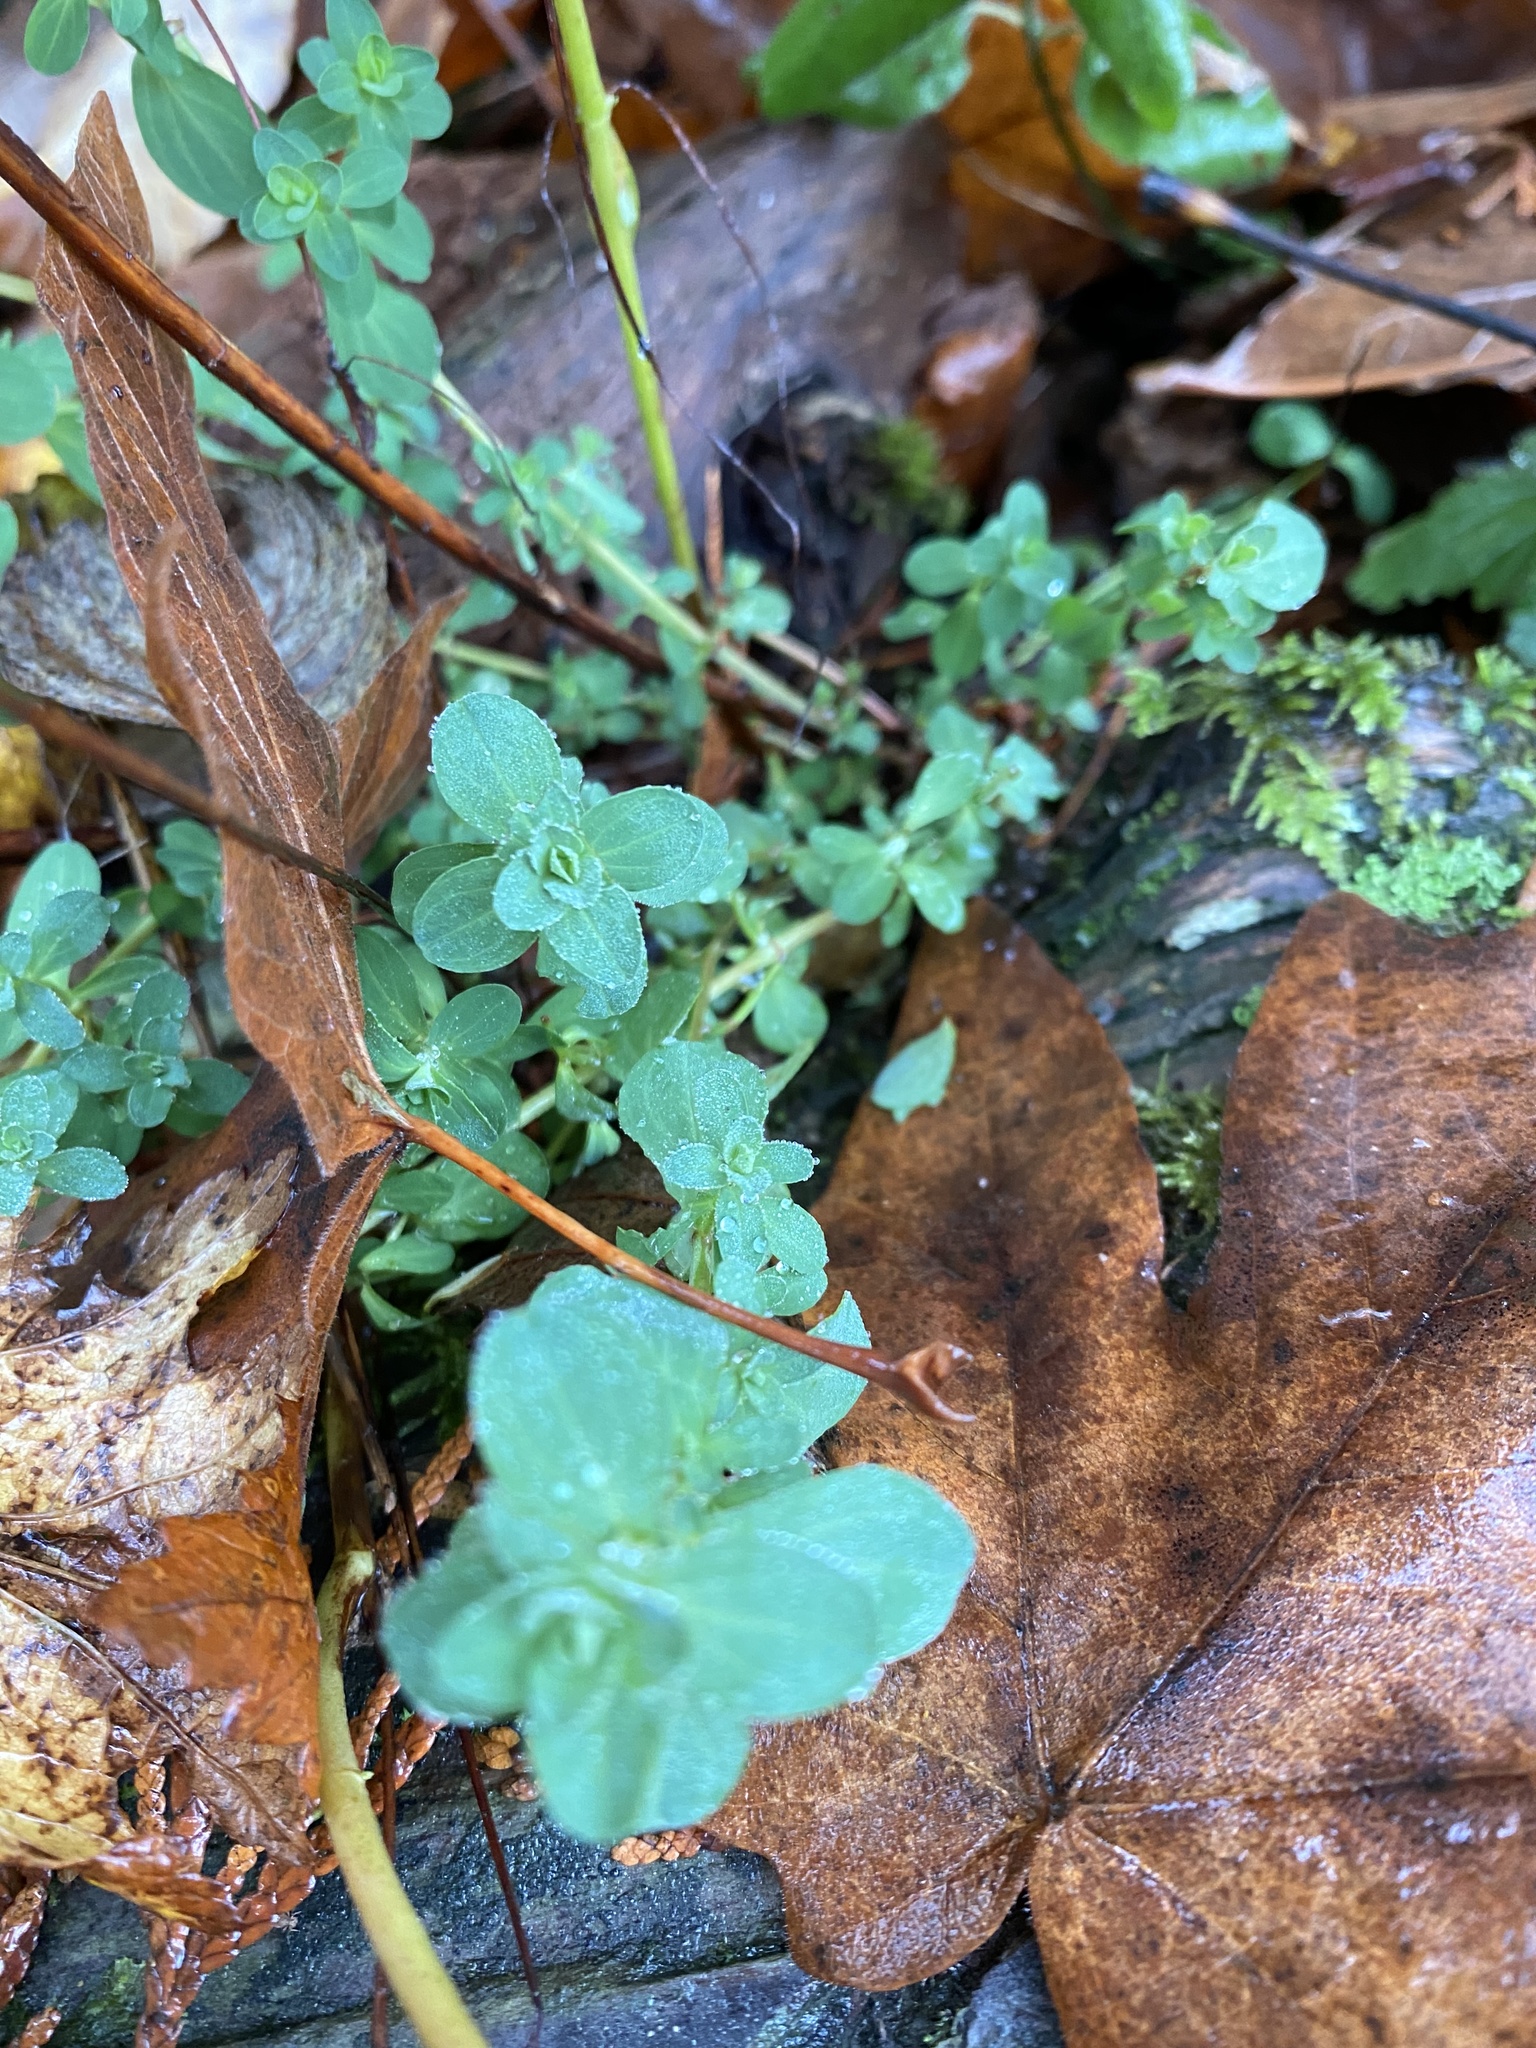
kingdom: Plantae
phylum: Tracheophyta
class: Magnoliopsida
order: Malpighiales
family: Hypericaceae
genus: Hypericum
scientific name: Hypericum perforatum
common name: Common st. johnswort
